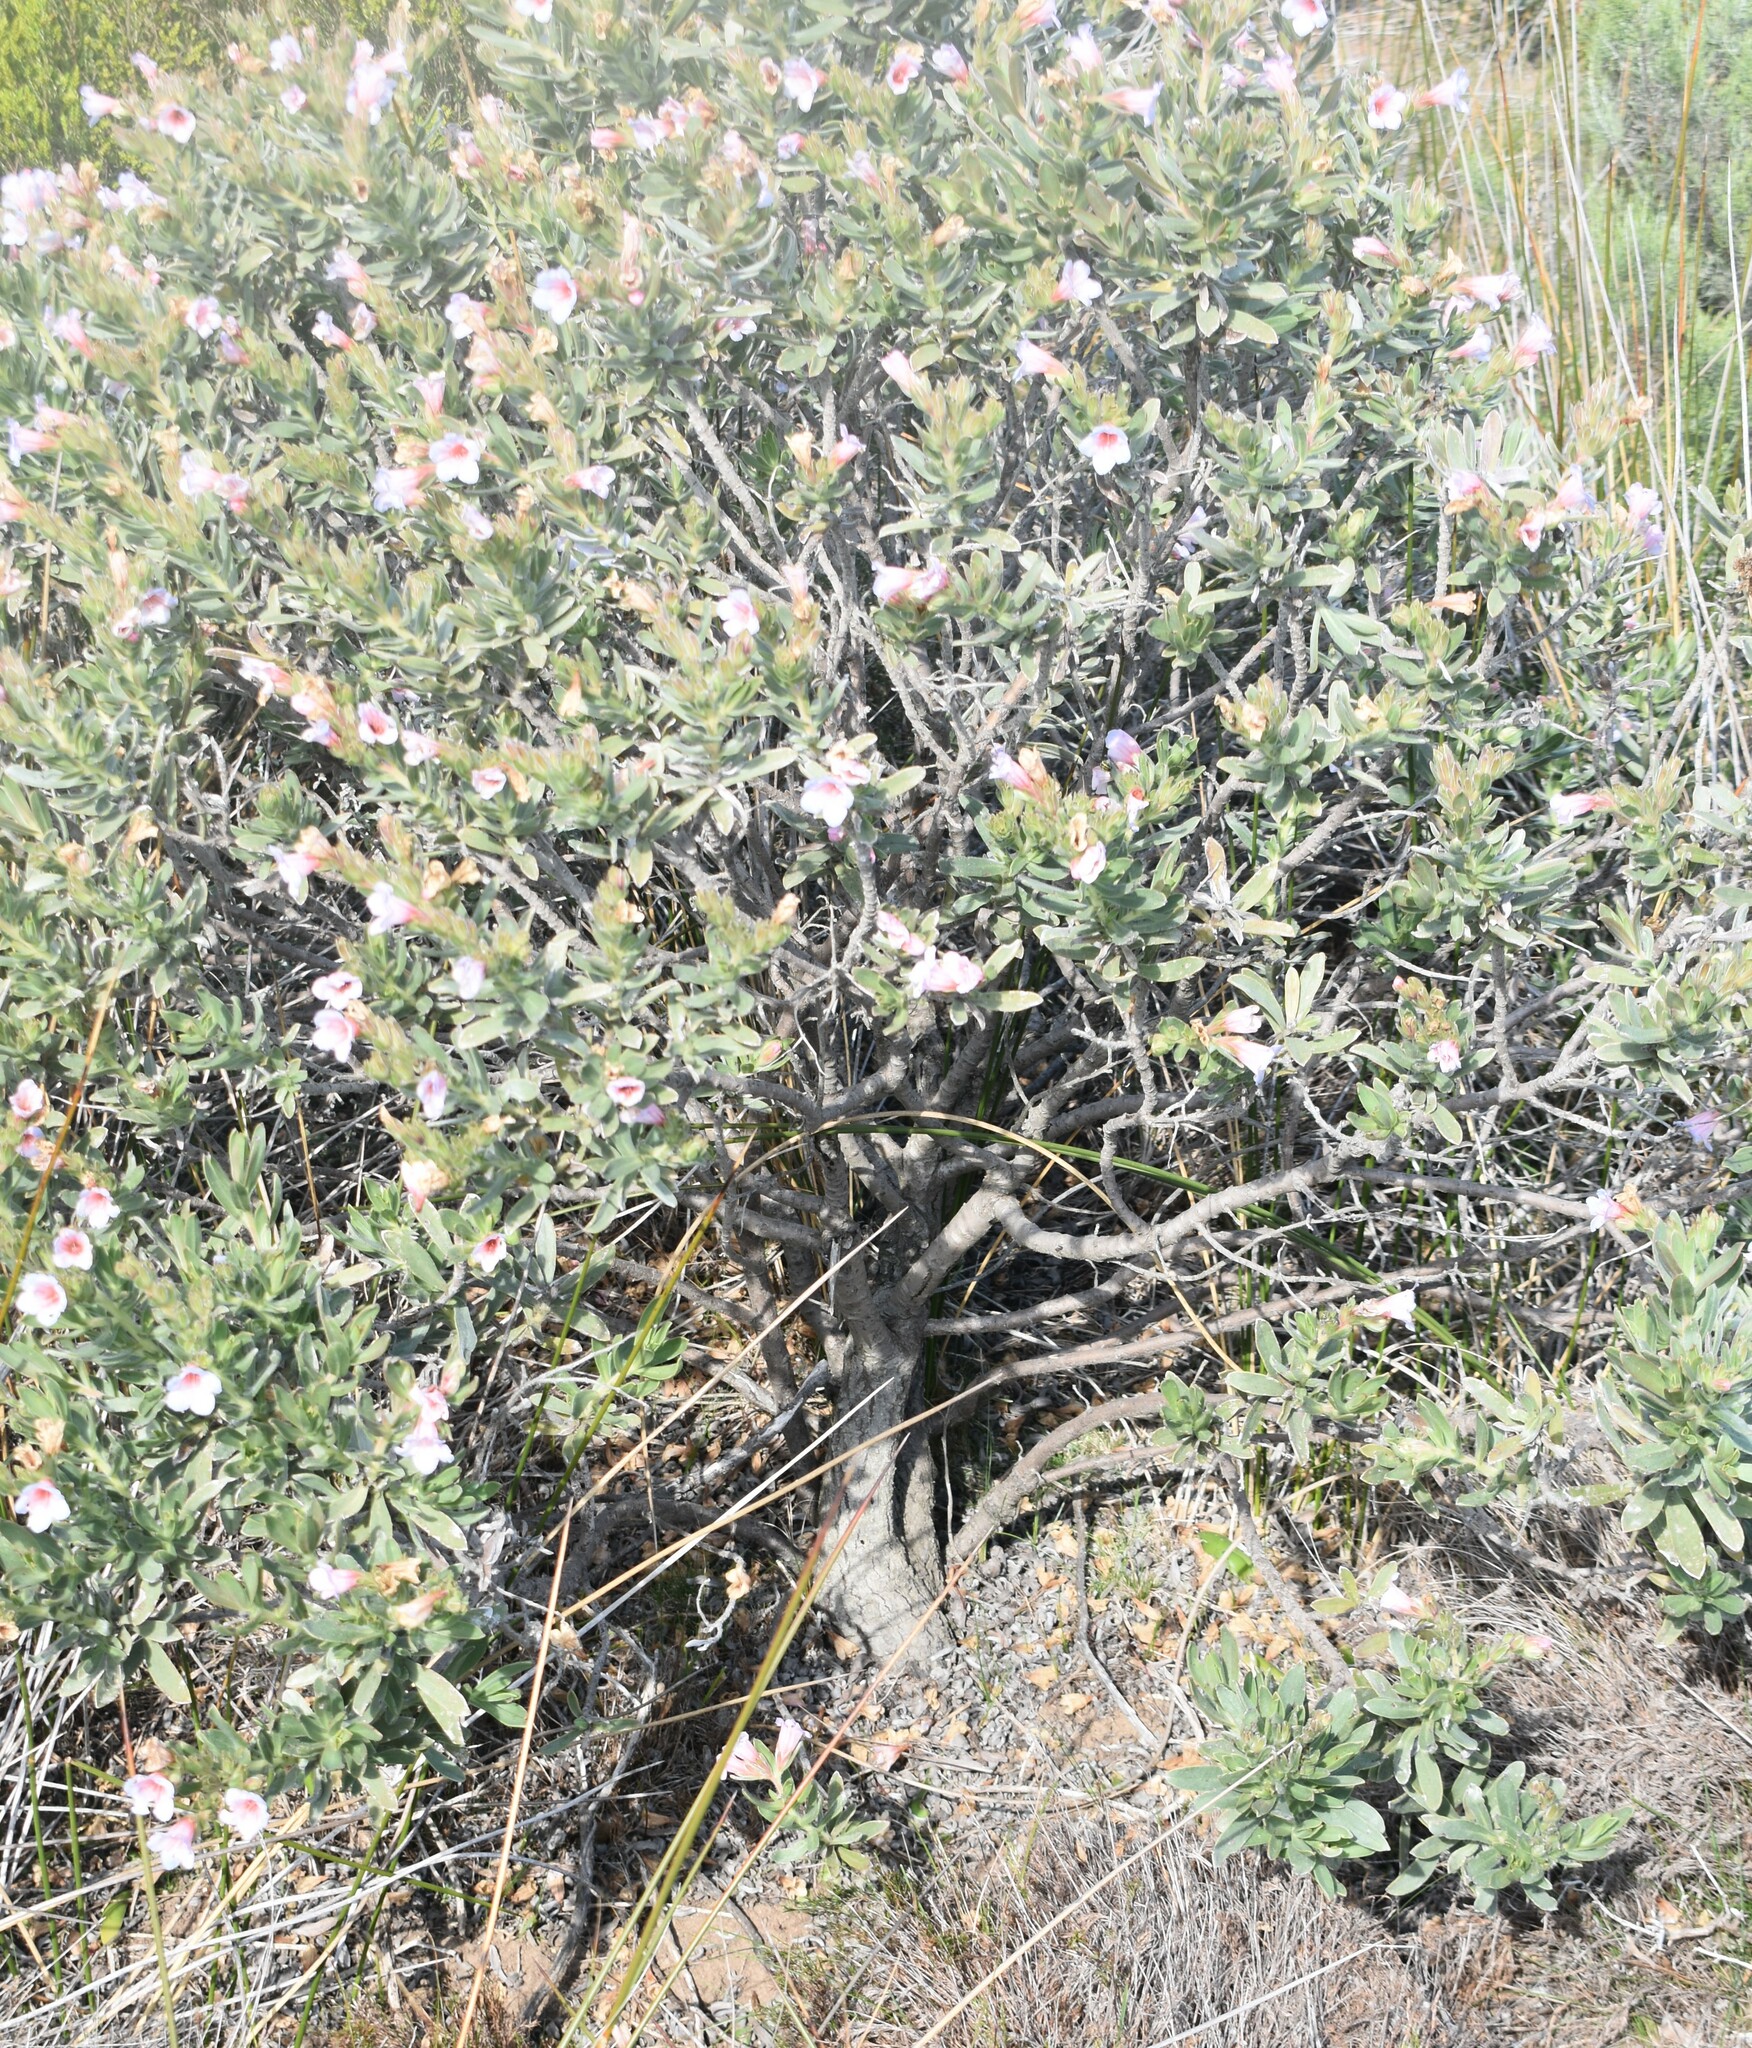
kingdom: Plantae
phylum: Tracheophyta
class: Magnoliopsida
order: Boraginales
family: Boraginaceae
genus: Lobostemon
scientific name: Lobostemon fruticosus
